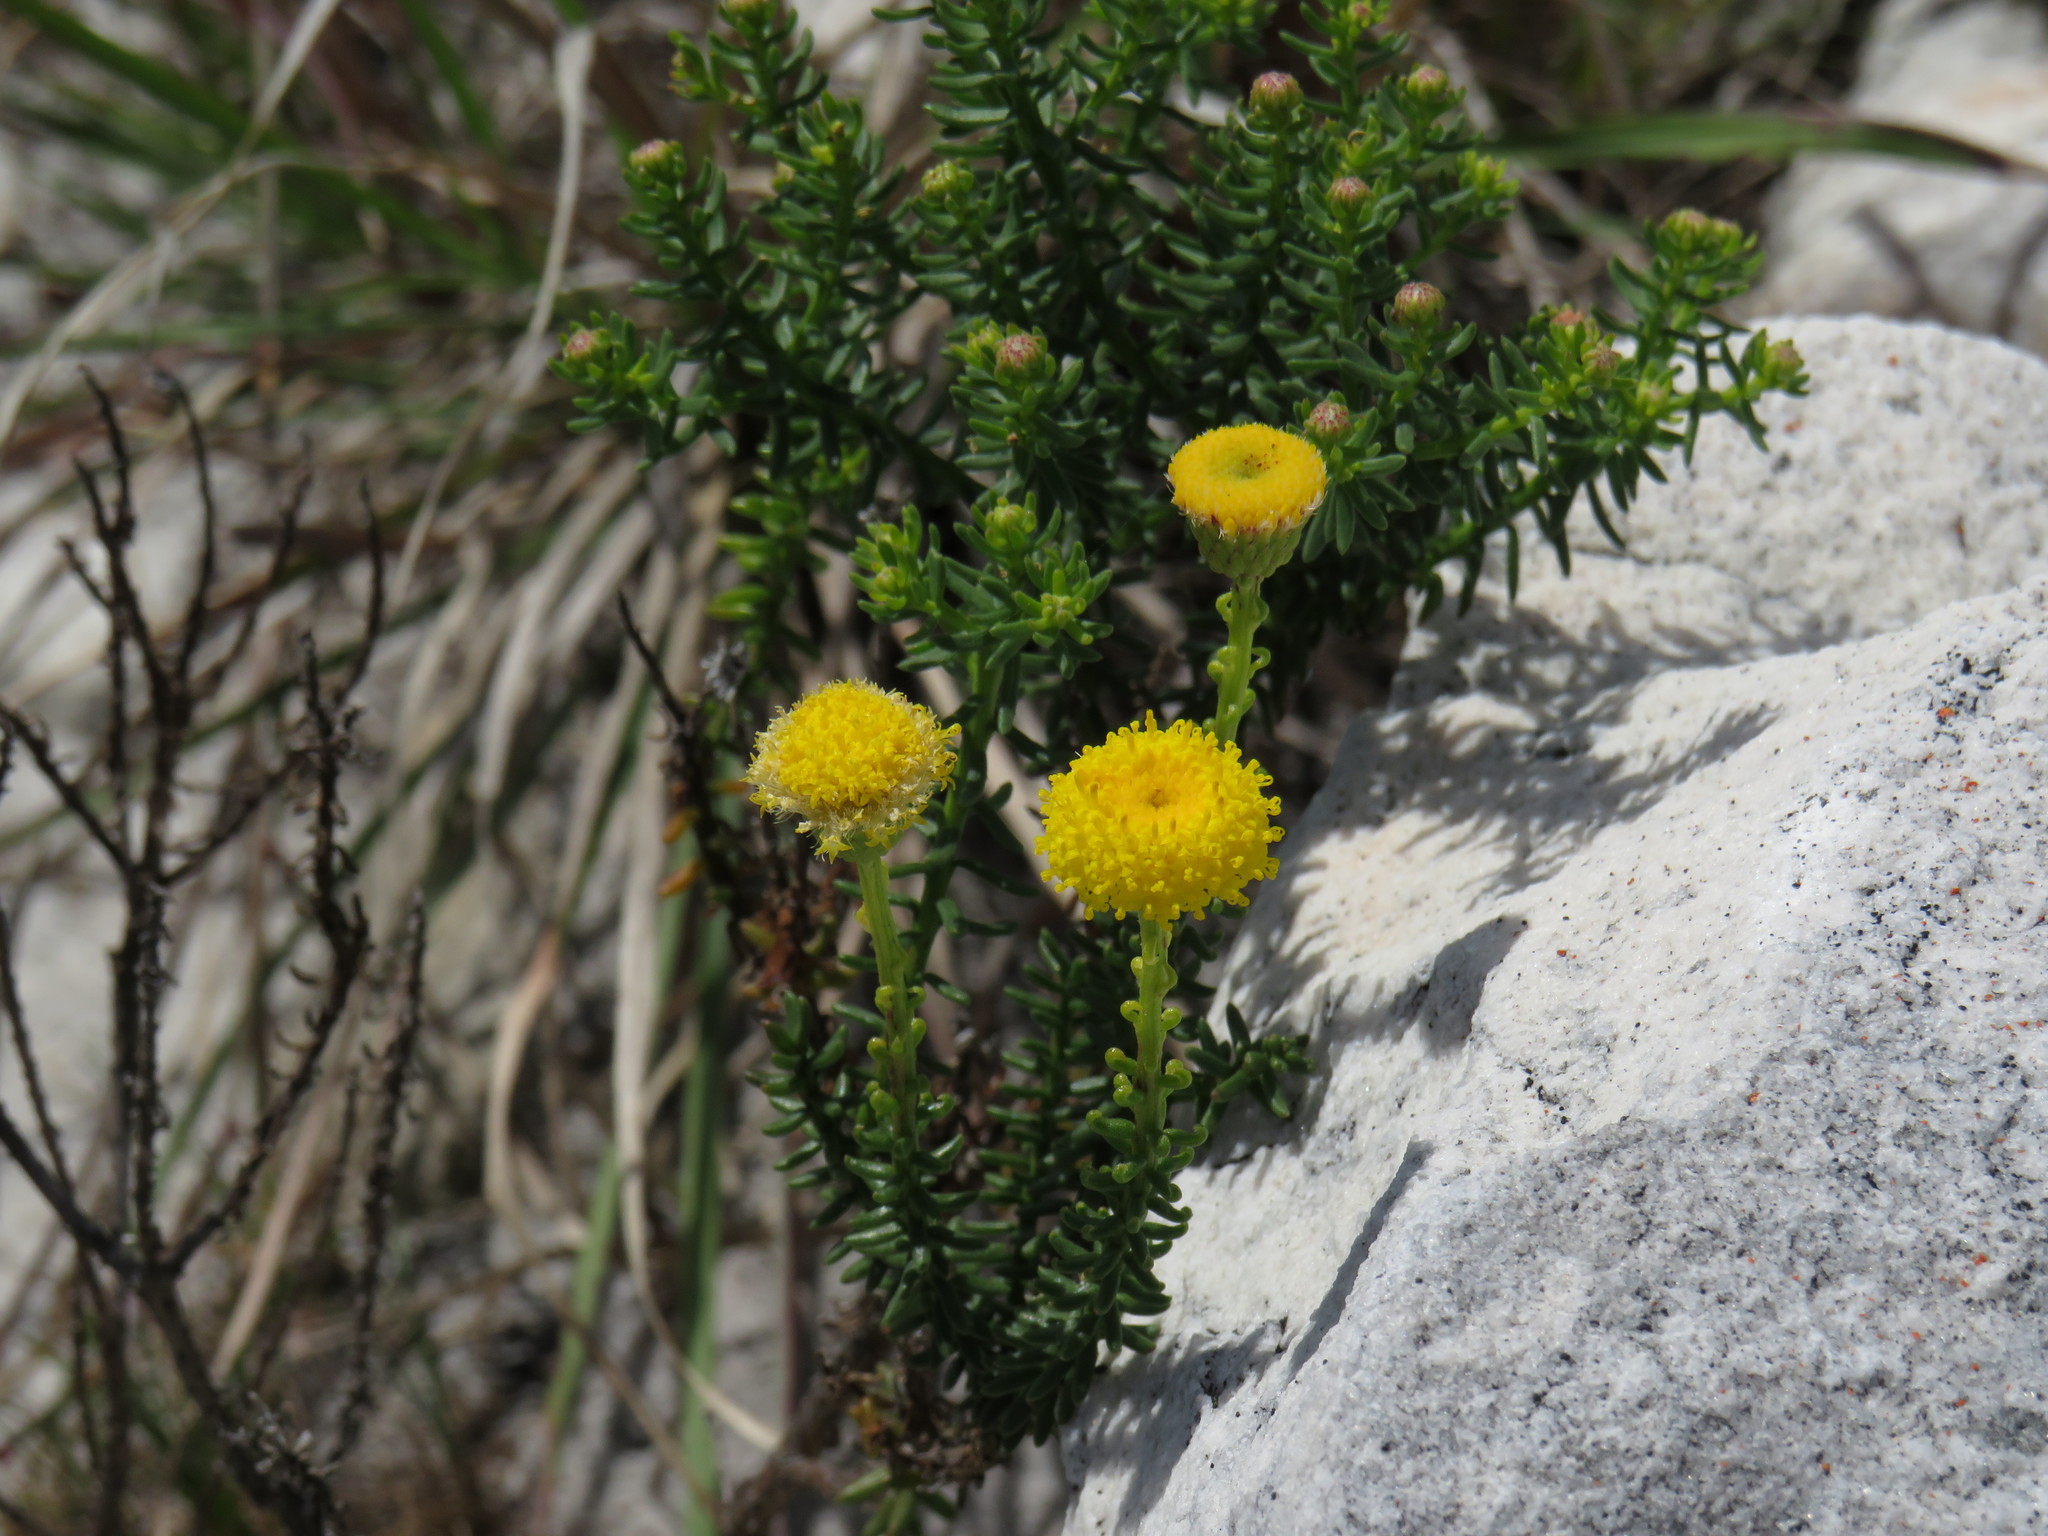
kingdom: Plantae
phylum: Tracheophyta
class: Magnoliopsida
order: Asterales
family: Asteraceae
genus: Chrysocoma
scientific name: Chrysocoma cernua
